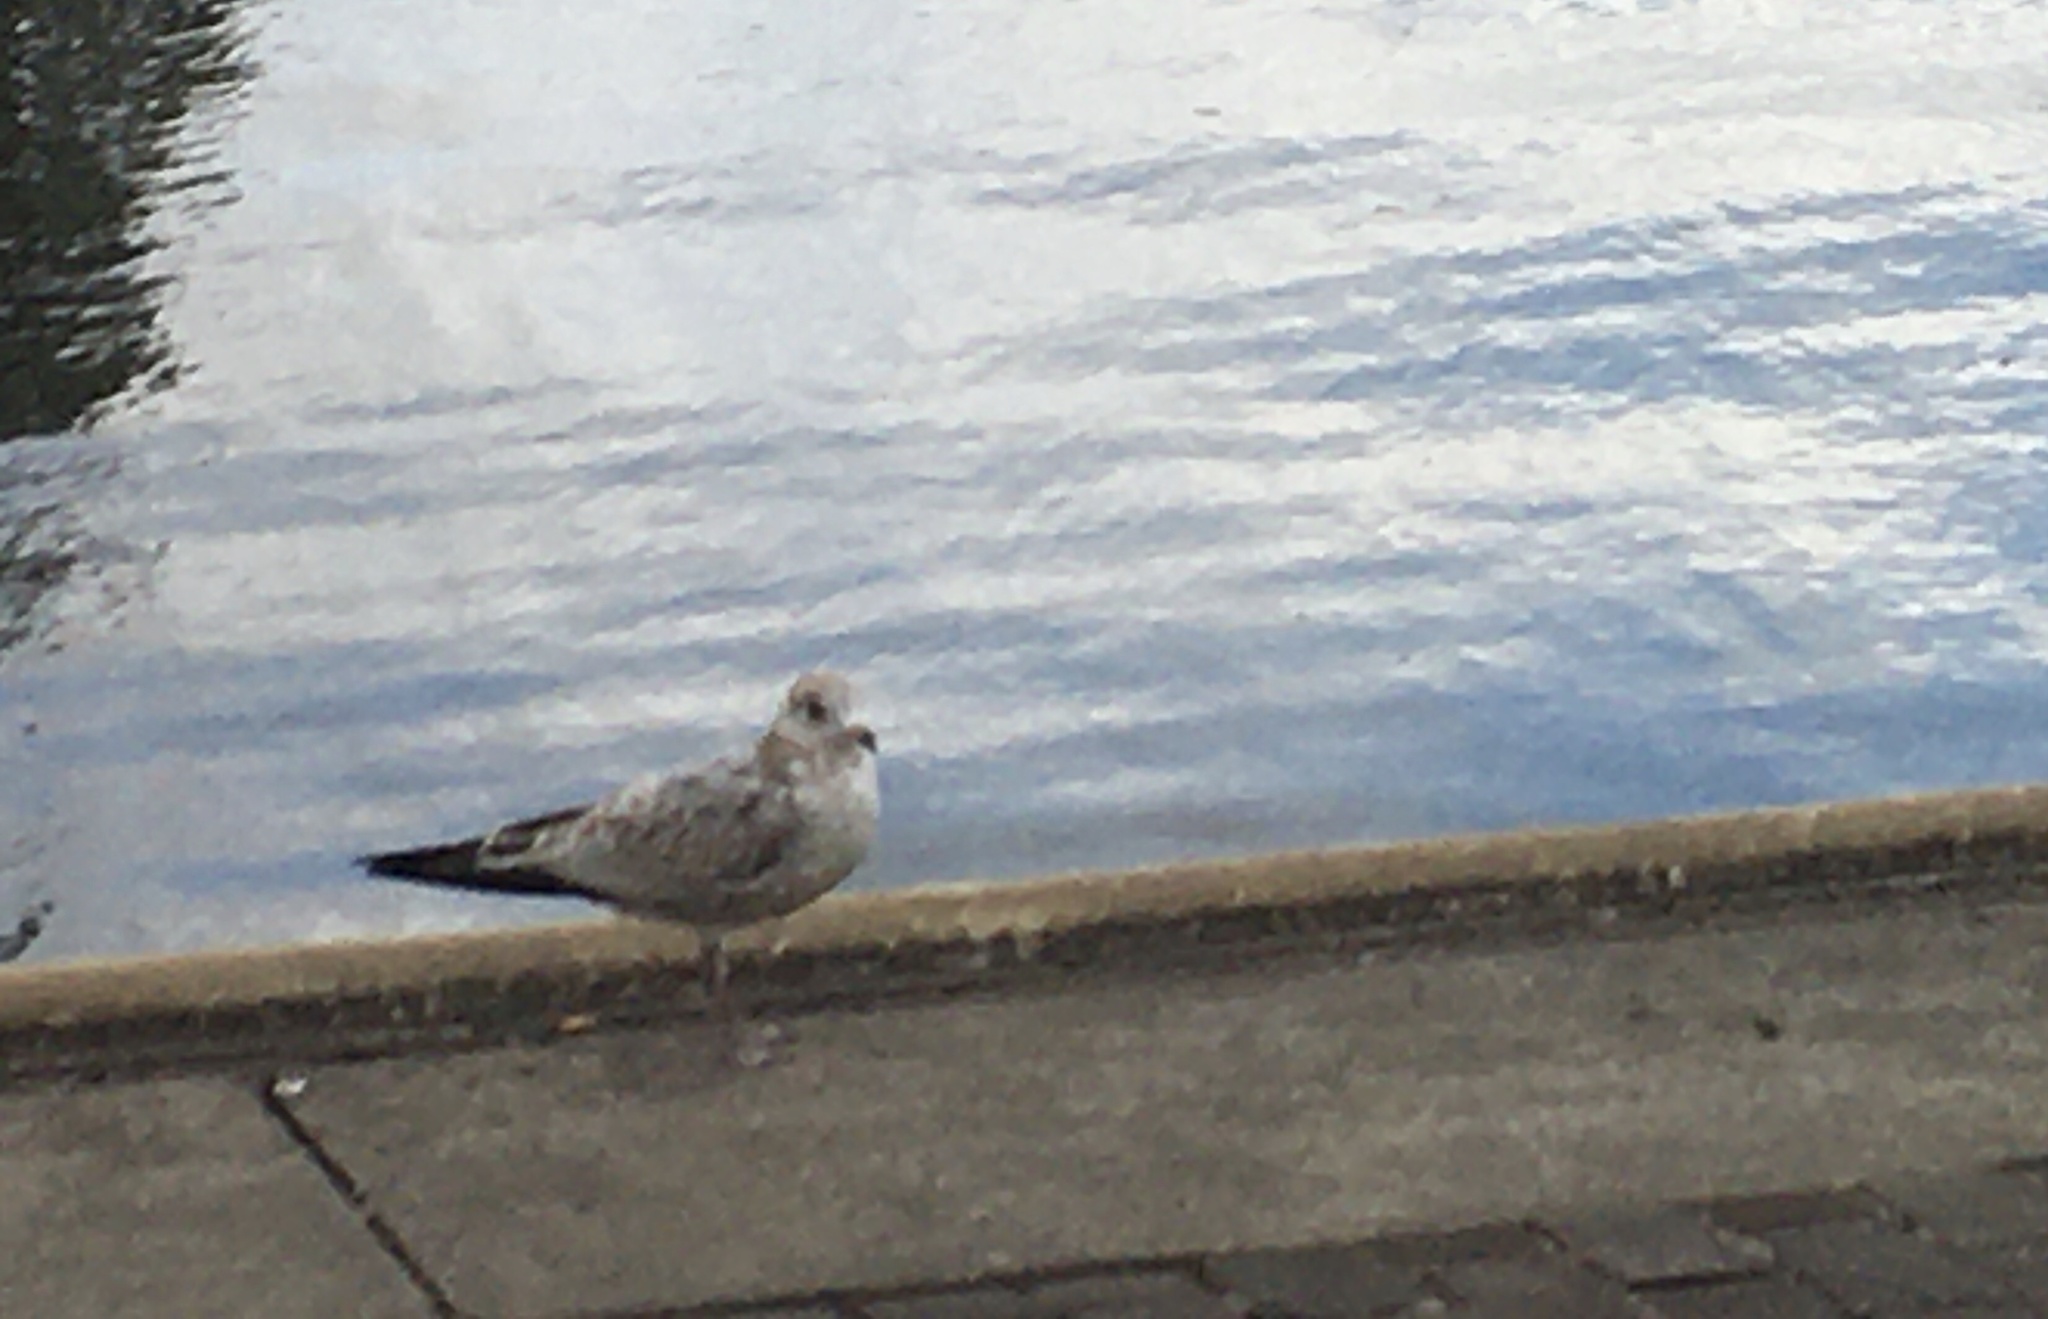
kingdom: Animalia
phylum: Chordata
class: Aves
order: Charadriiformes
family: Laridae
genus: Larus
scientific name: Larus delawarensis
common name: Ring-billed gull
